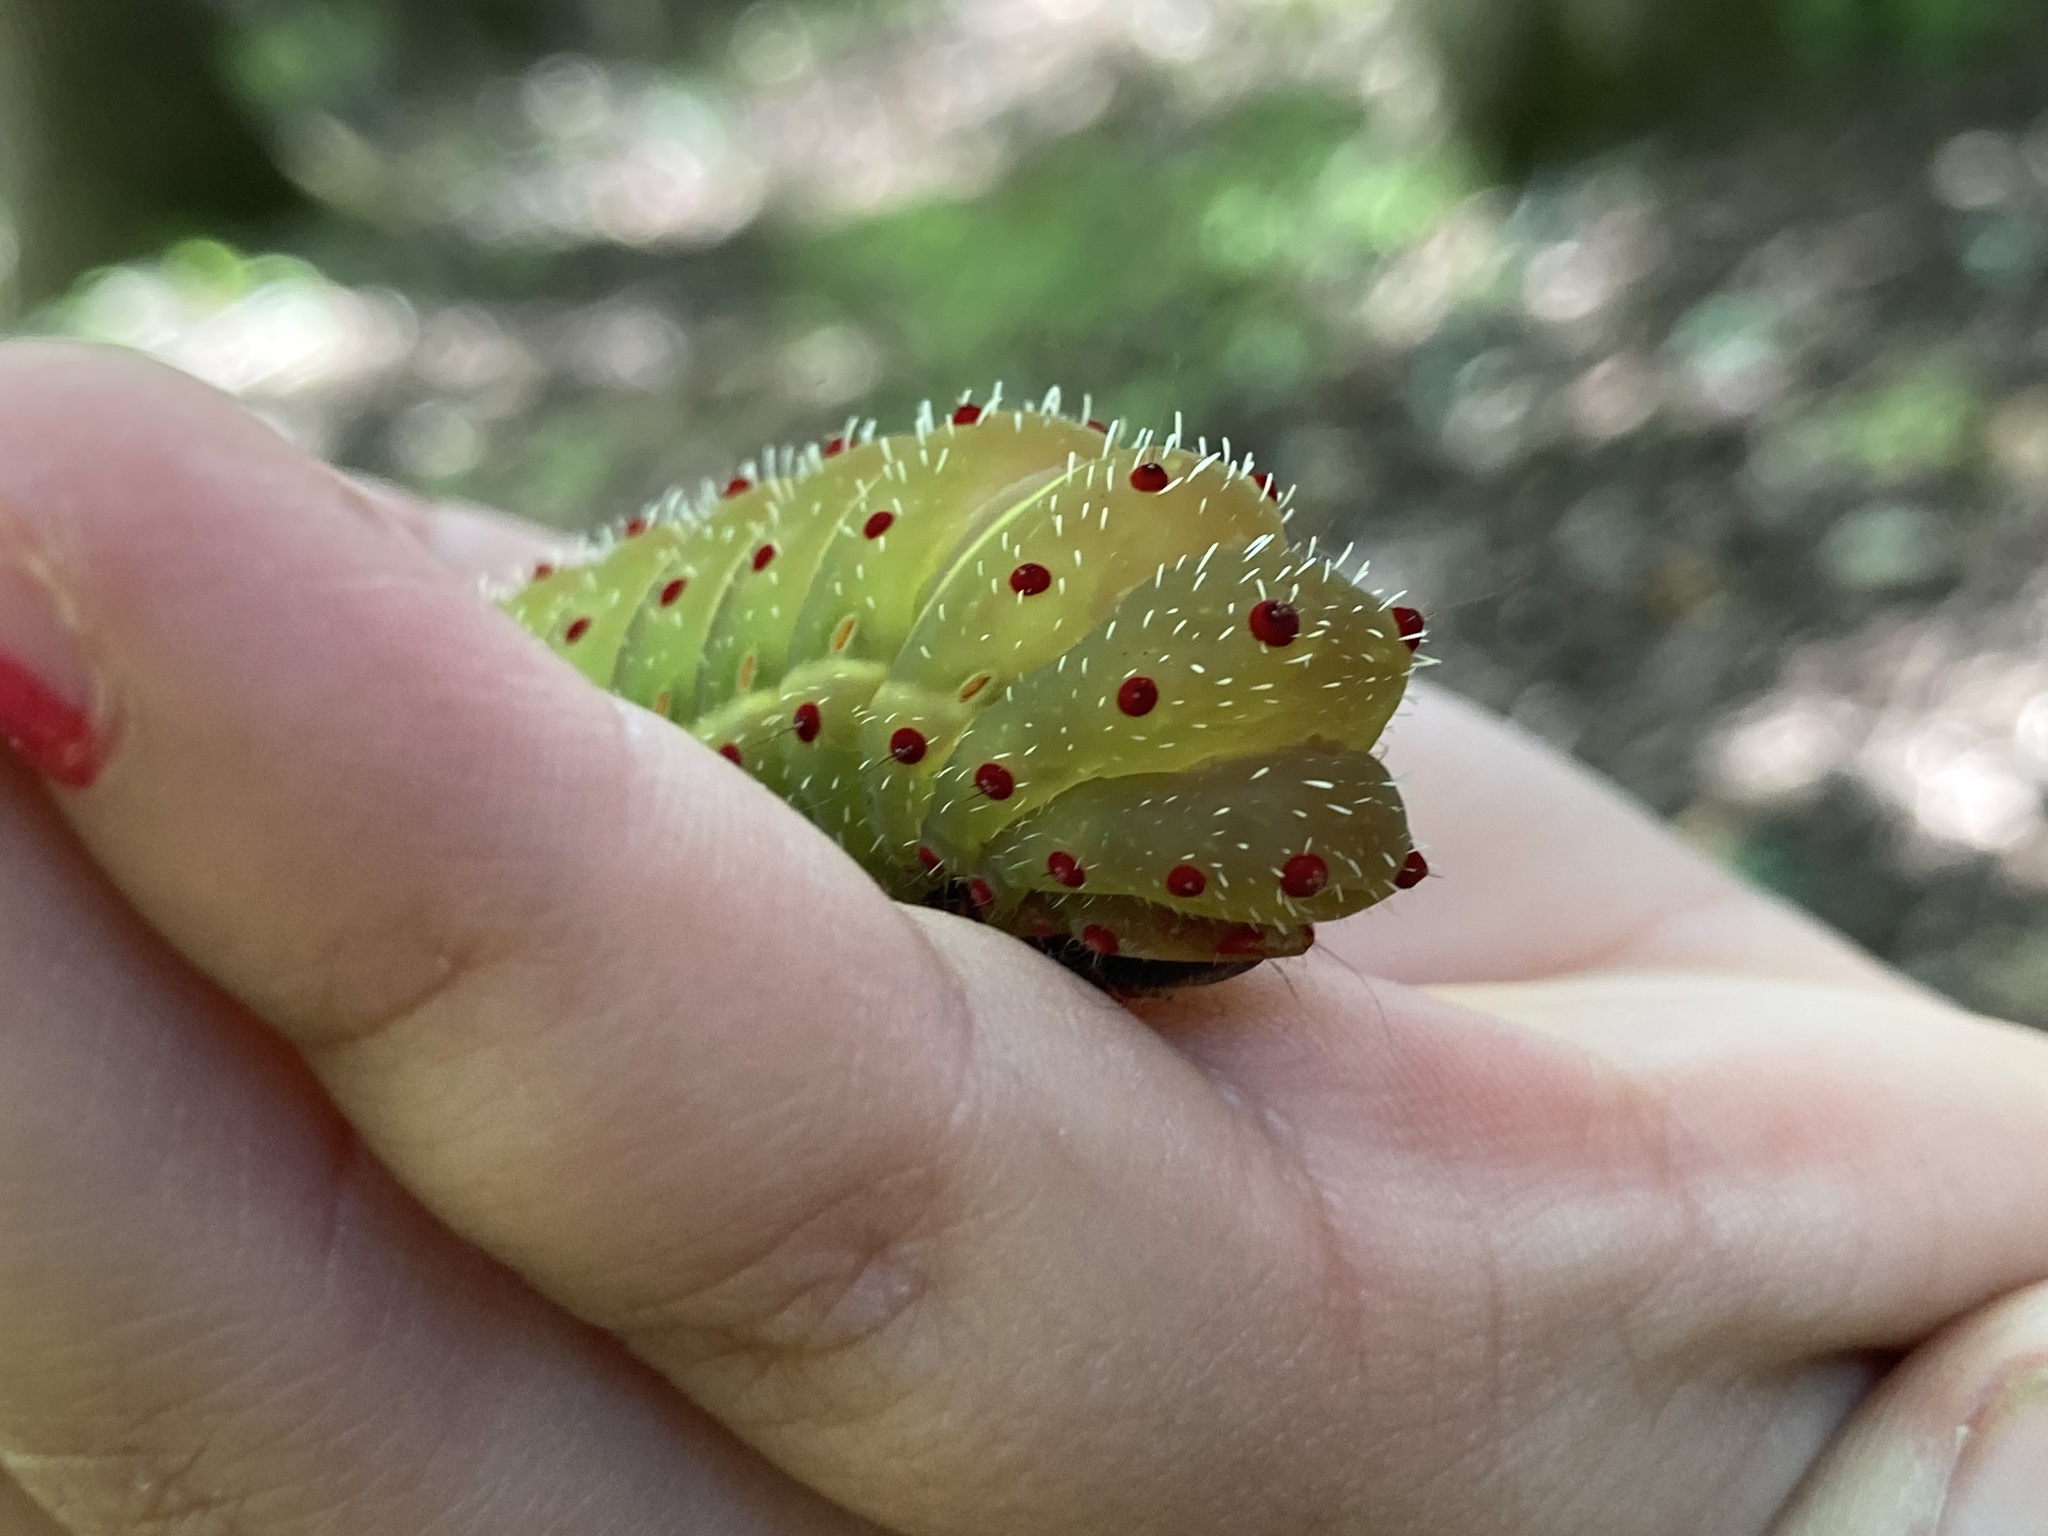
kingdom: Animalia
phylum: Arthropoda
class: Insecta
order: Lepidoptera
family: Saturniidae
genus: Actias
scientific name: Actias luna
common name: Luna moth
